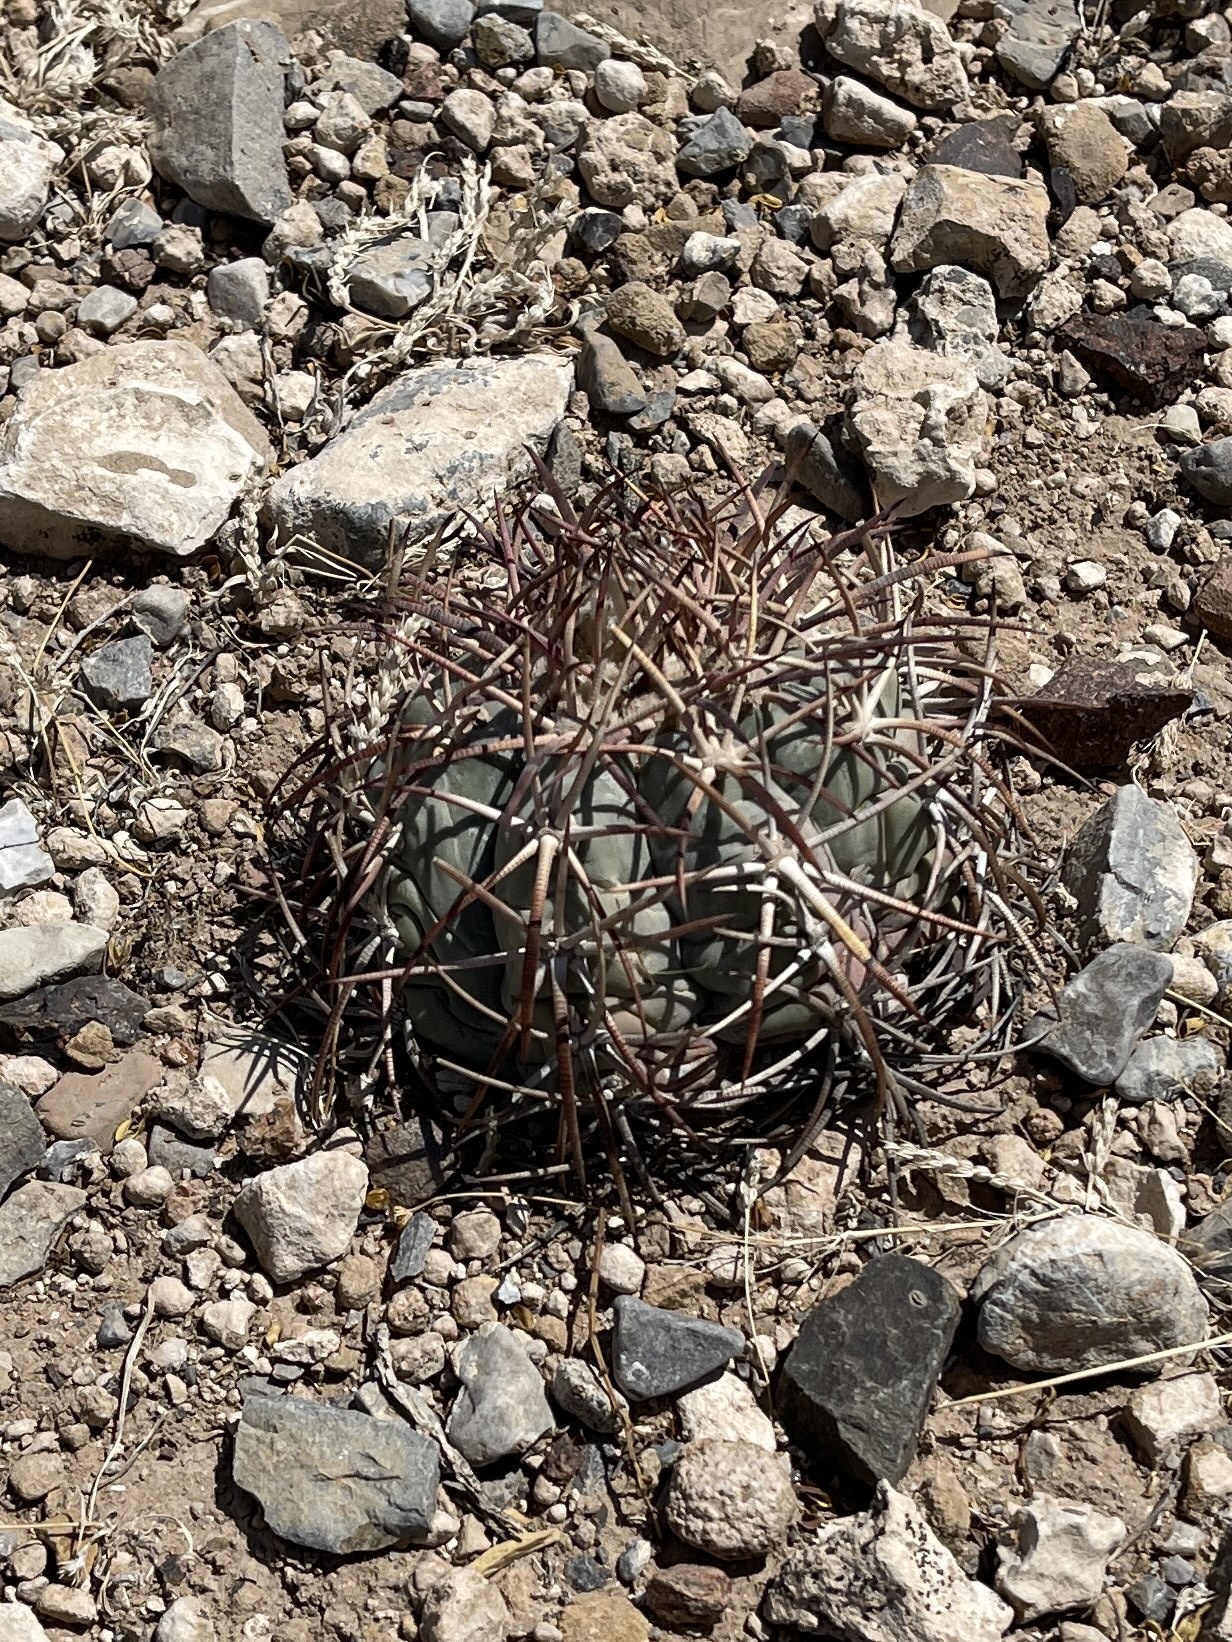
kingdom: Plantae
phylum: Tracheophyta
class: Magnoliopsida
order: Caryophyllales
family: Cactaceae
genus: Echinocactus
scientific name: Echinocactus horizonthalonius
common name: Devilshead
